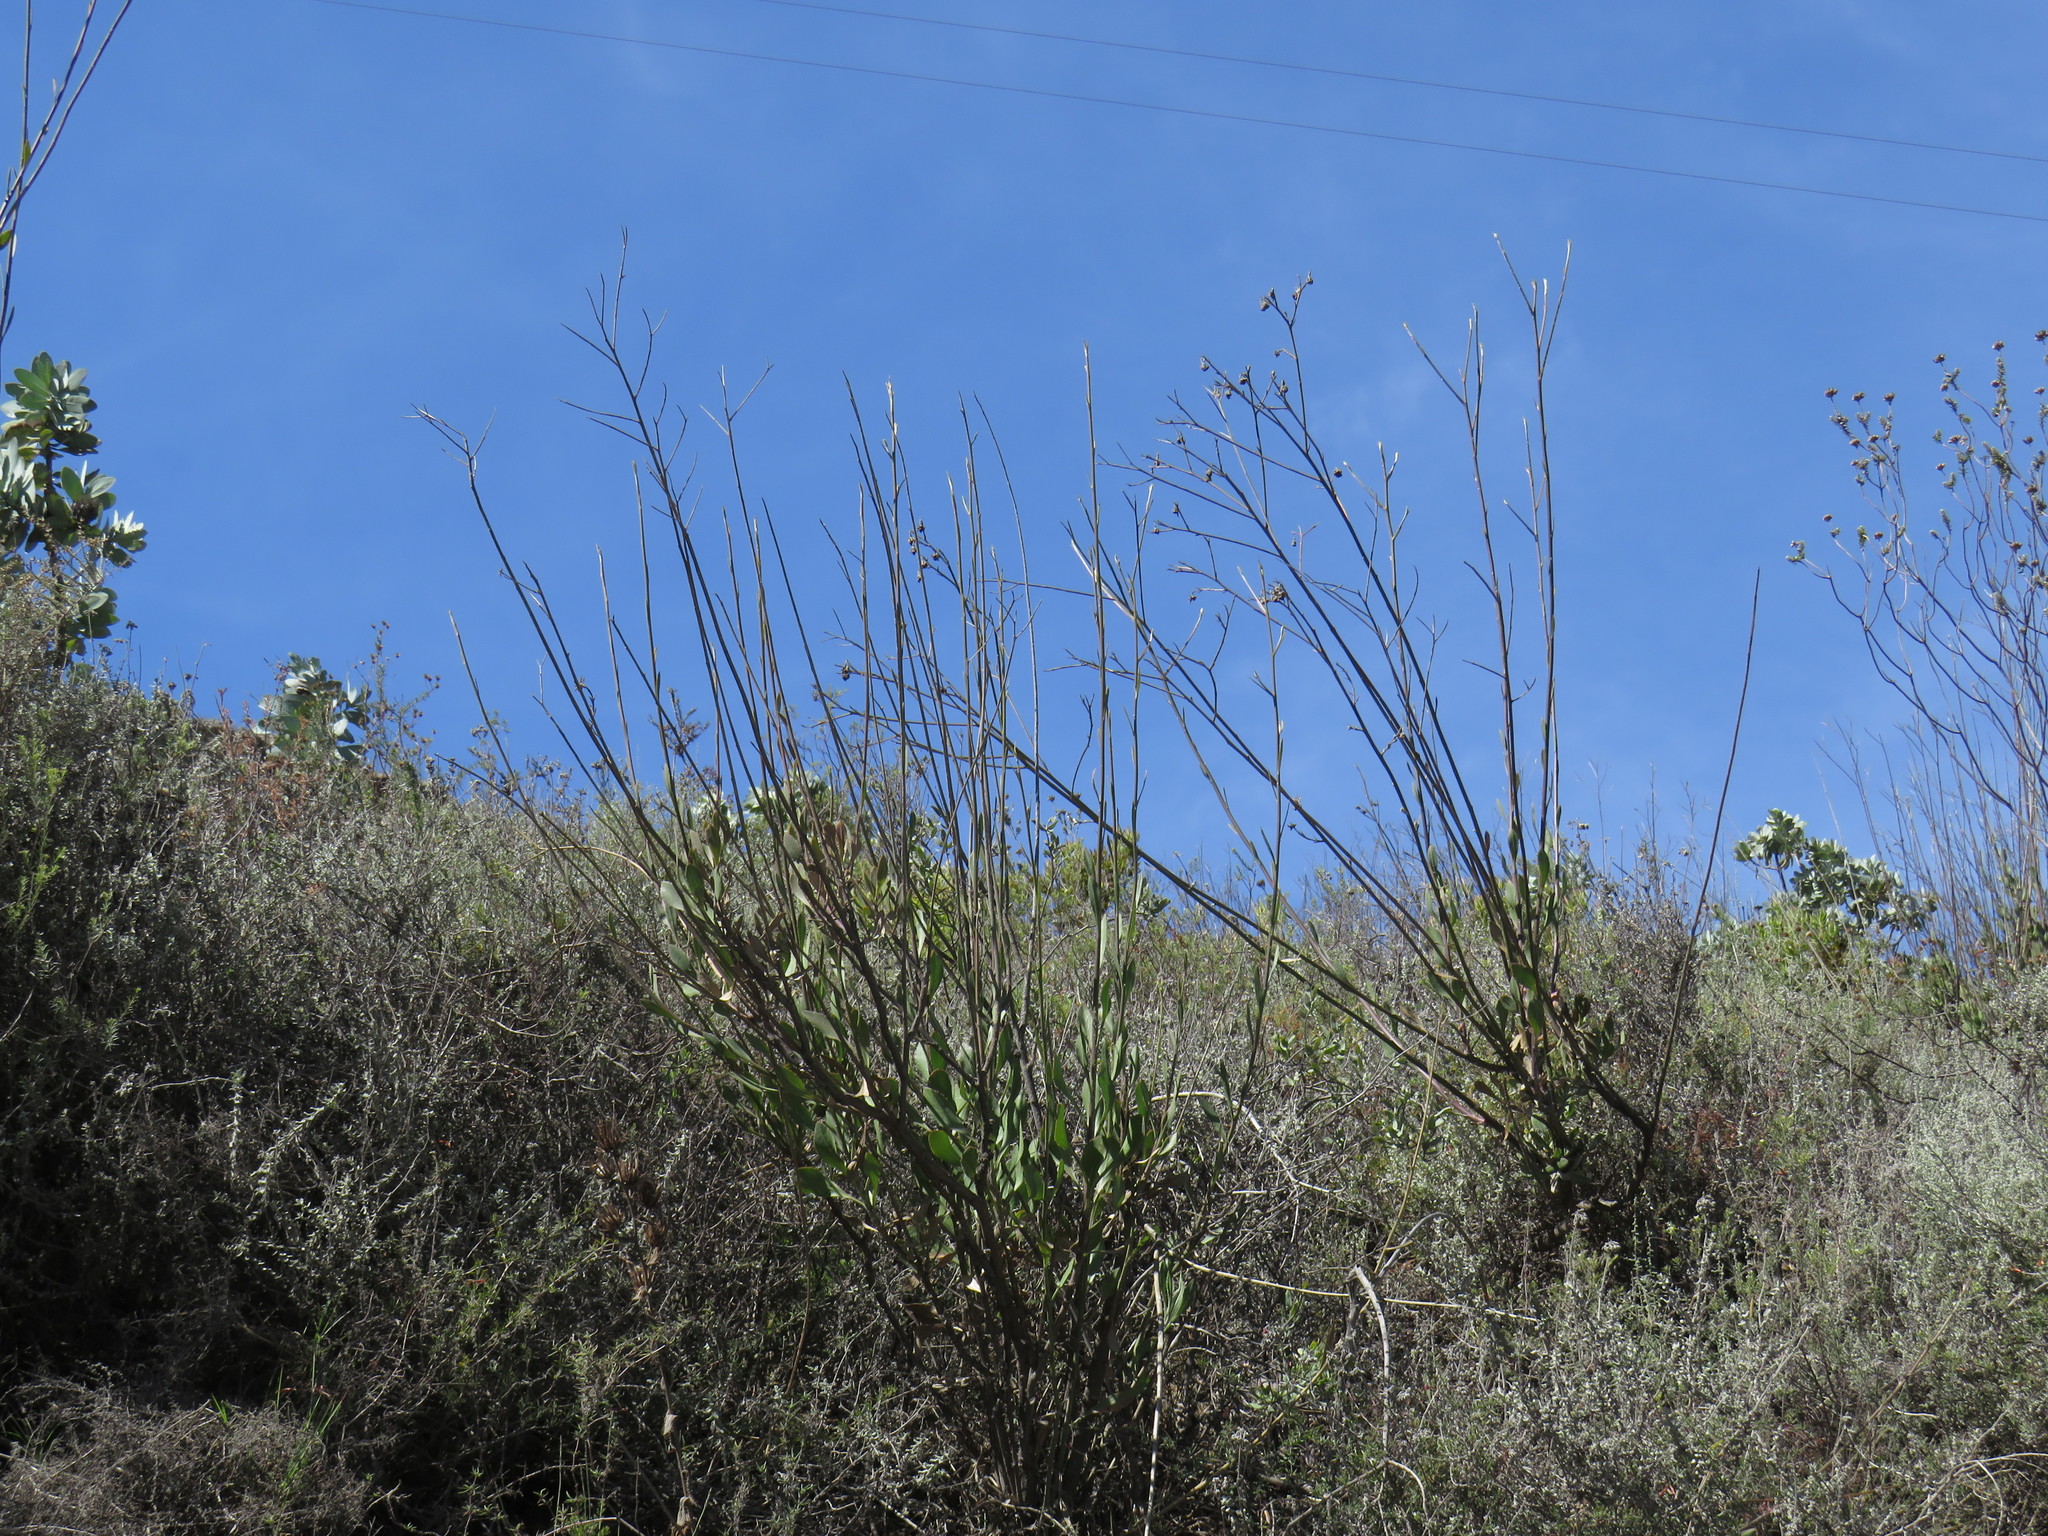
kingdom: Plantae
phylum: Tracheophyta
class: Magnoliopsida
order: Asterales
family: Asteraceae
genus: Osteospermum
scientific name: Osteospermum junceum
